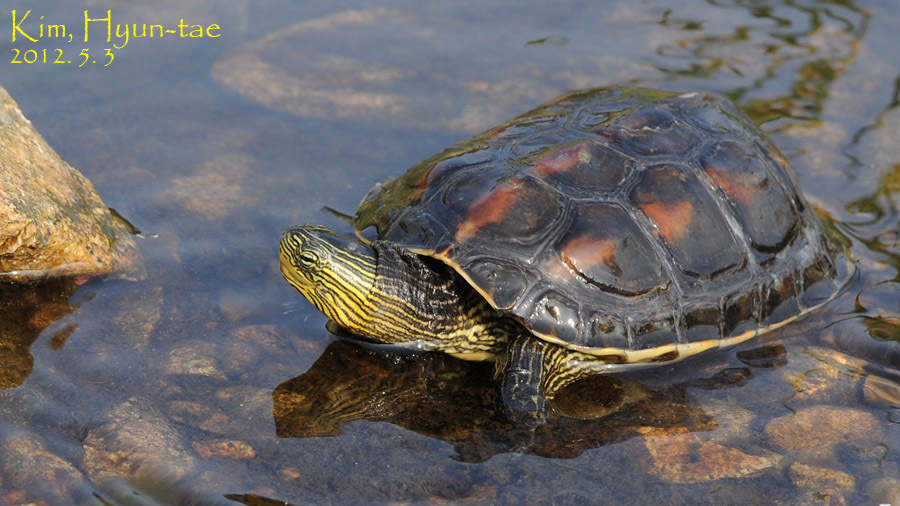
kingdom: Animalia
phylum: Chordata
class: Testudines
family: Geoemydidae
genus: Mauremys
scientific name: Mauremys sinensis
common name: Chinese stripe-necked turtle
